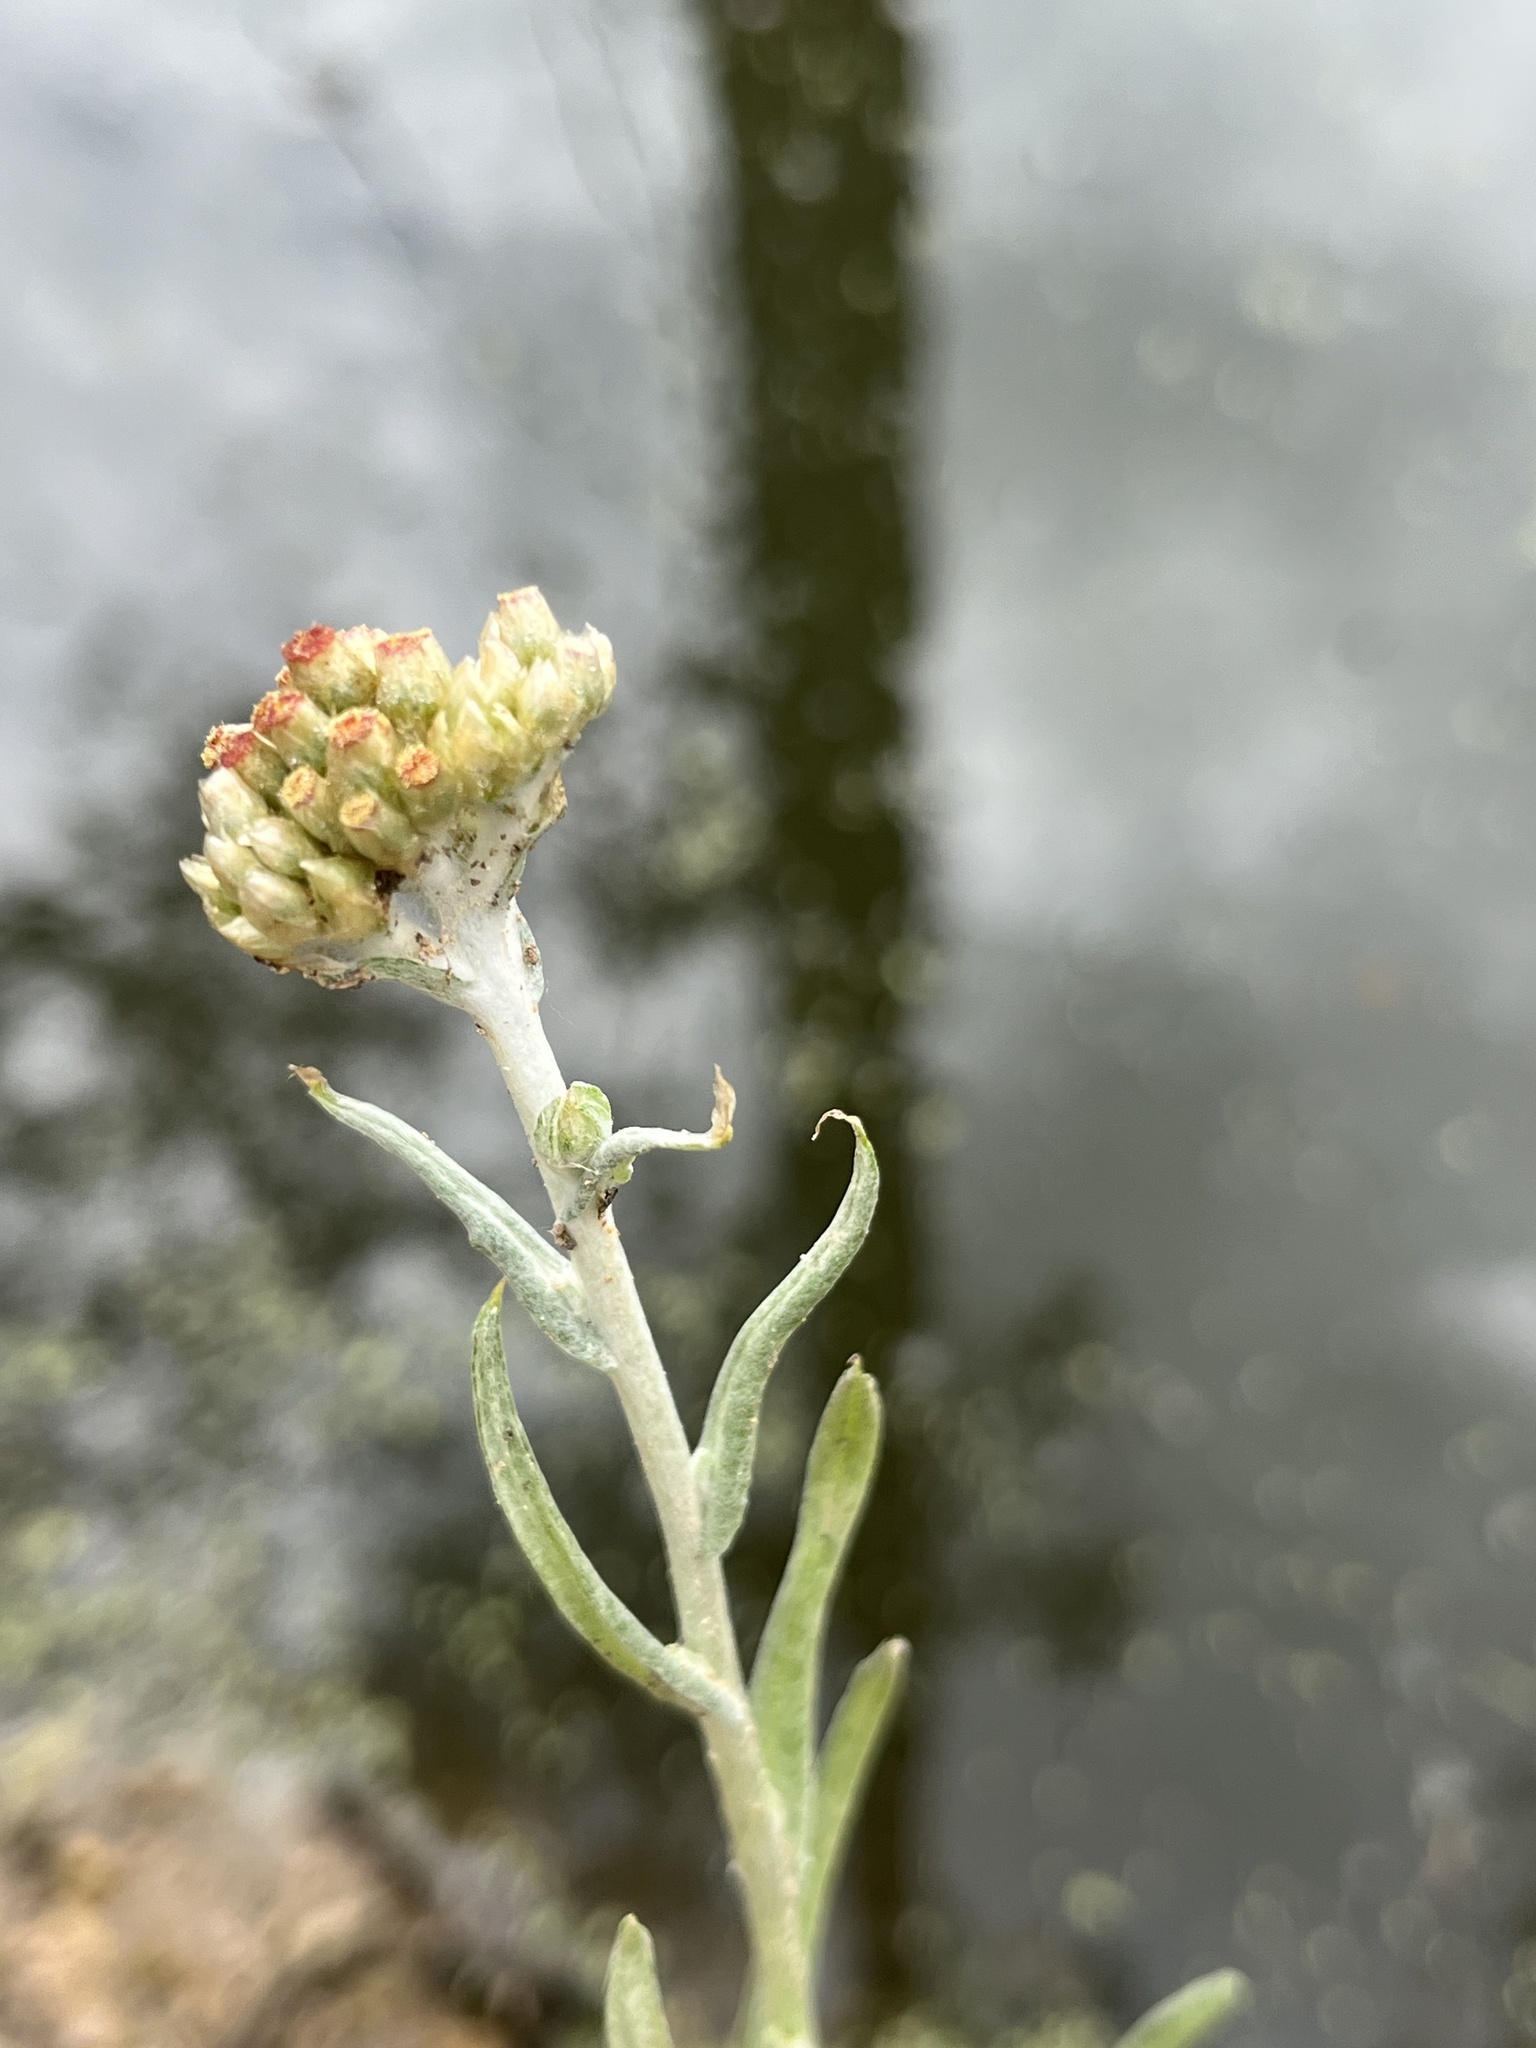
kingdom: Plantae
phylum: Tracheophyta
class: Magnoliopsida
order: Asterales
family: Asteraceae
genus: Helichrysum
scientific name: Helichrysum luteoalbum
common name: Daisy
